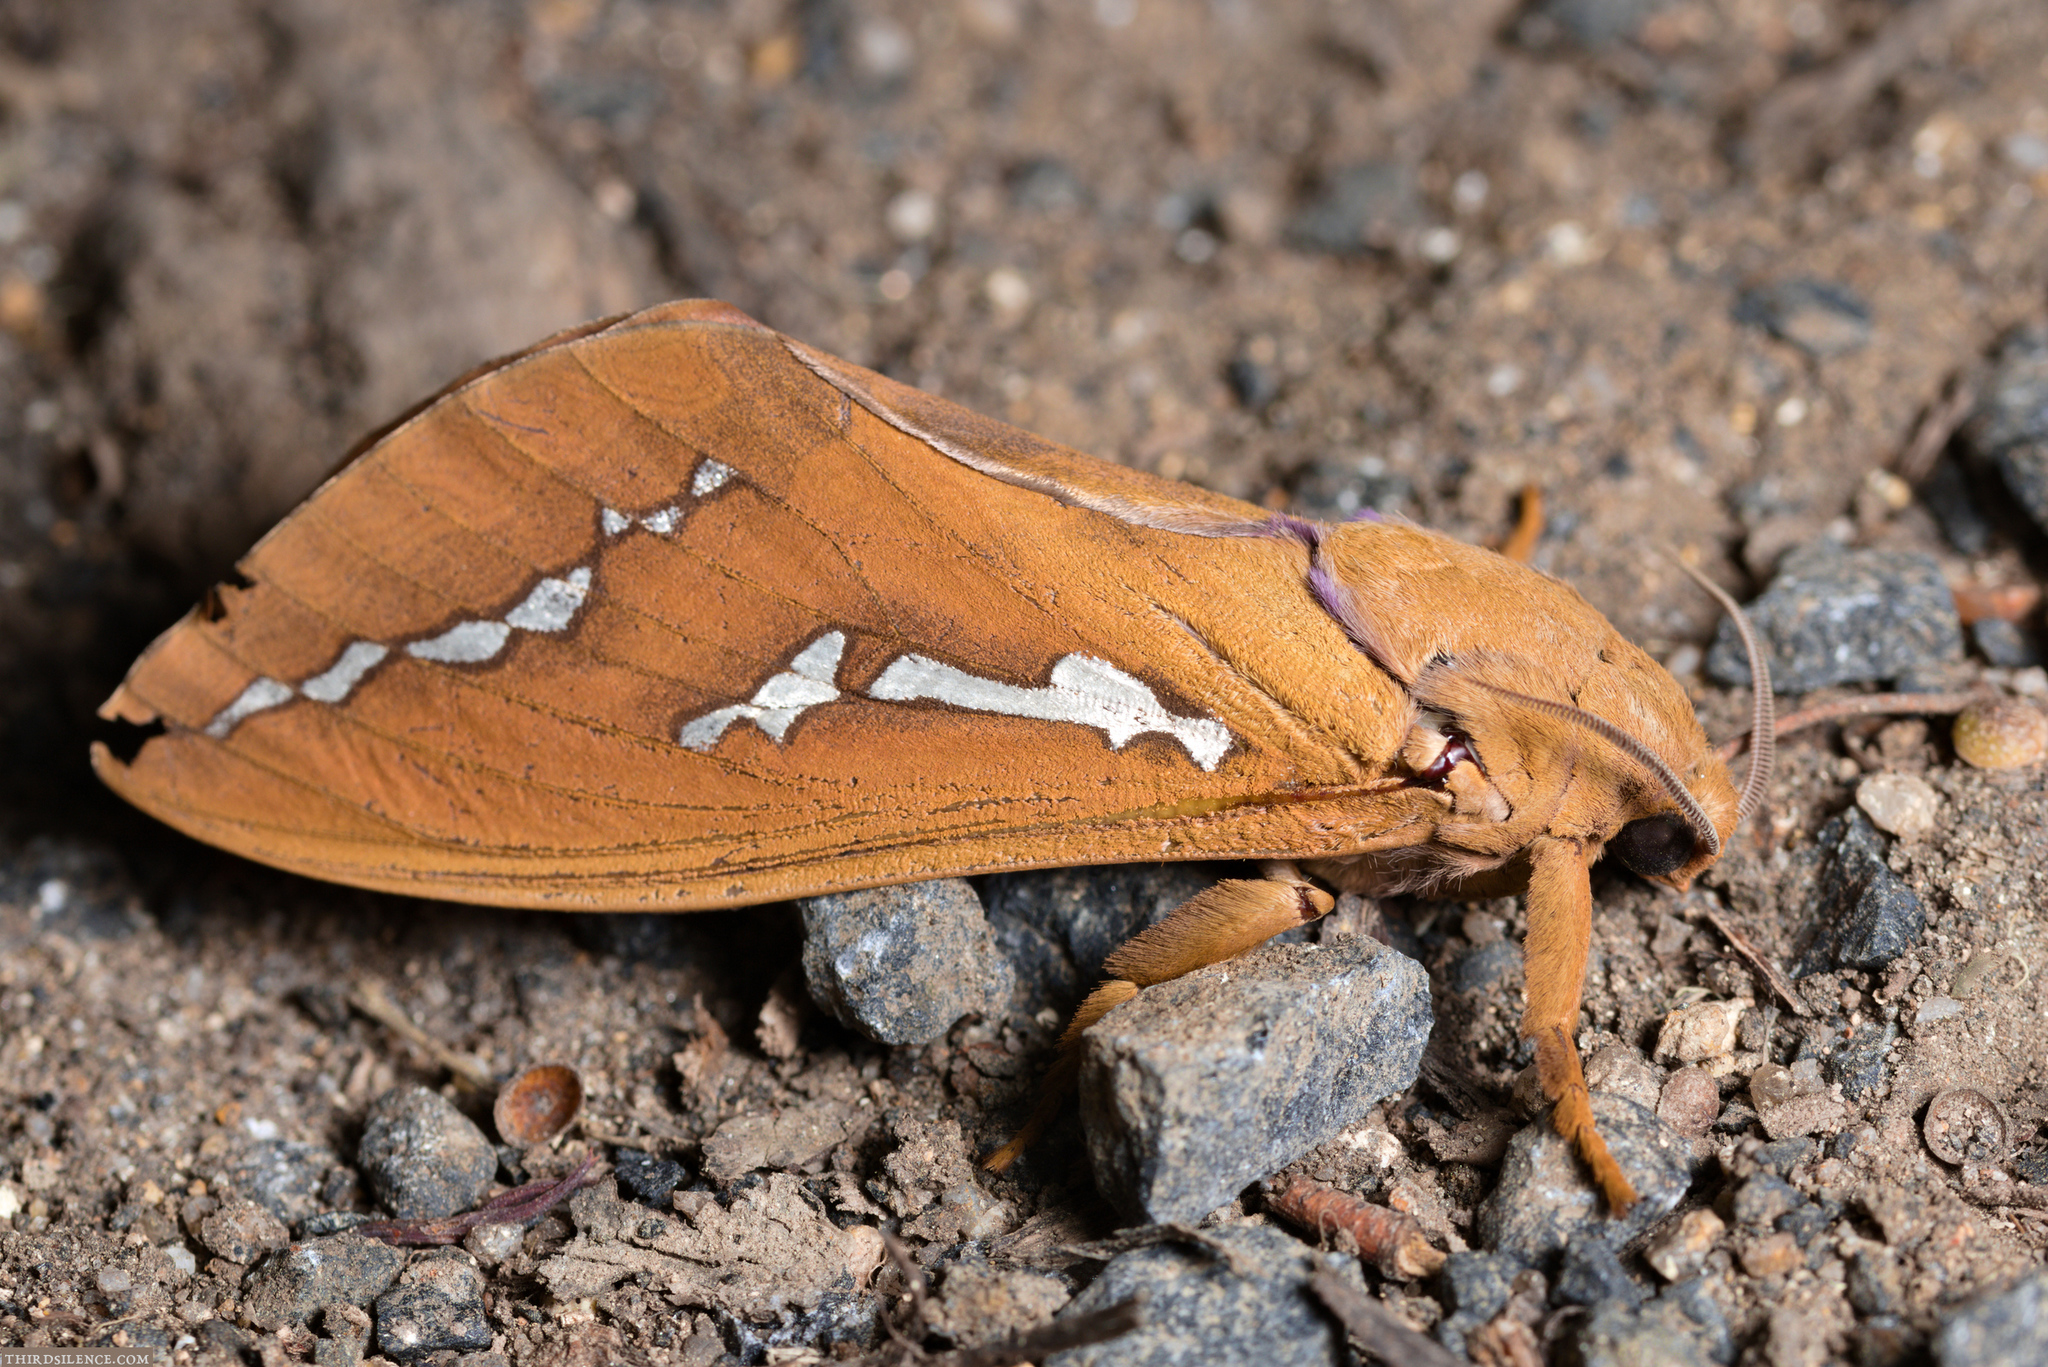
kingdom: Animalia
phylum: Arthropoda
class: Insecta
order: Lepidoptera
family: Hepialidae
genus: Abantiades
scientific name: Abantiades hyalinatus
